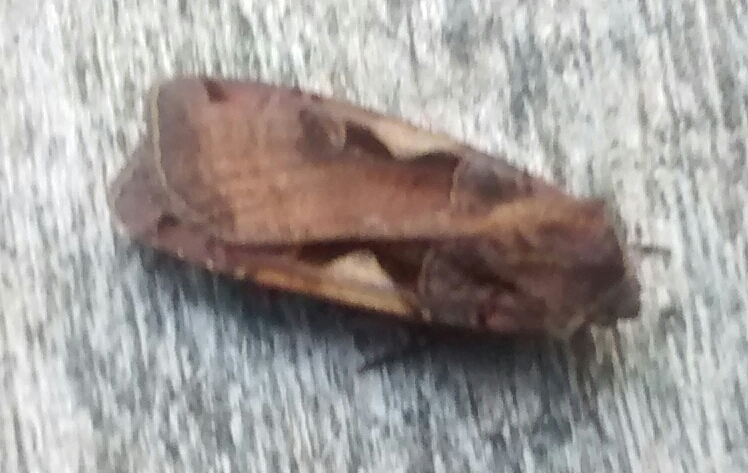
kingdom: Animalia
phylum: Arthropoda
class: Insecta
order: Lepidoptera
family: Noctuidae
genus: Xestia
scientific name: Xestia
